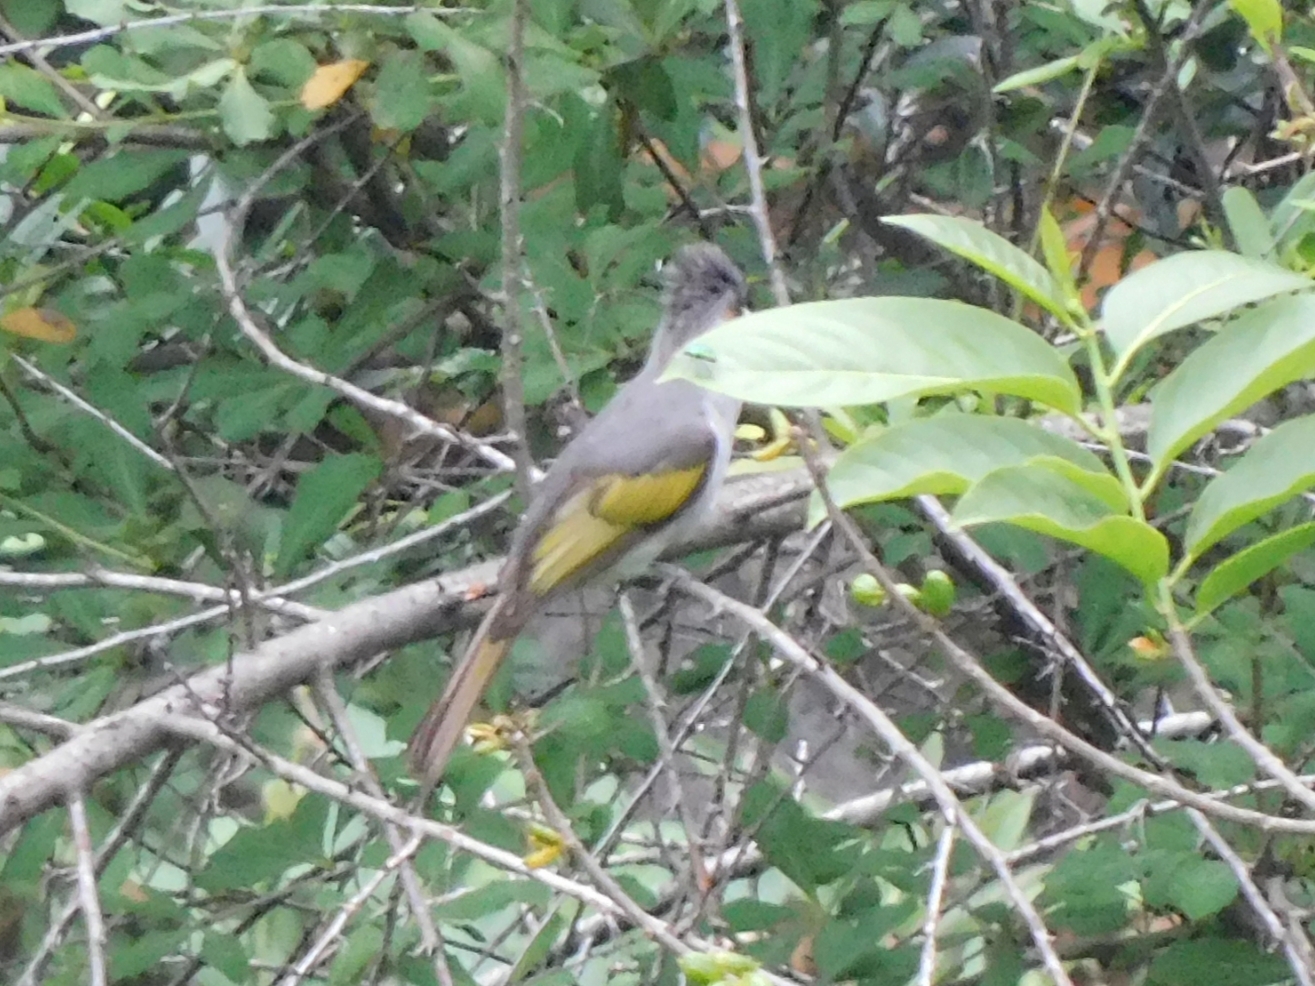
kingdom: Animalia
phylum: Chordata
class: Aves
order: Passeriformes
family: Pycnonotidae
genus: Hemixos
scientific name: Hemixos flavala
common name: Ashy bulbul
